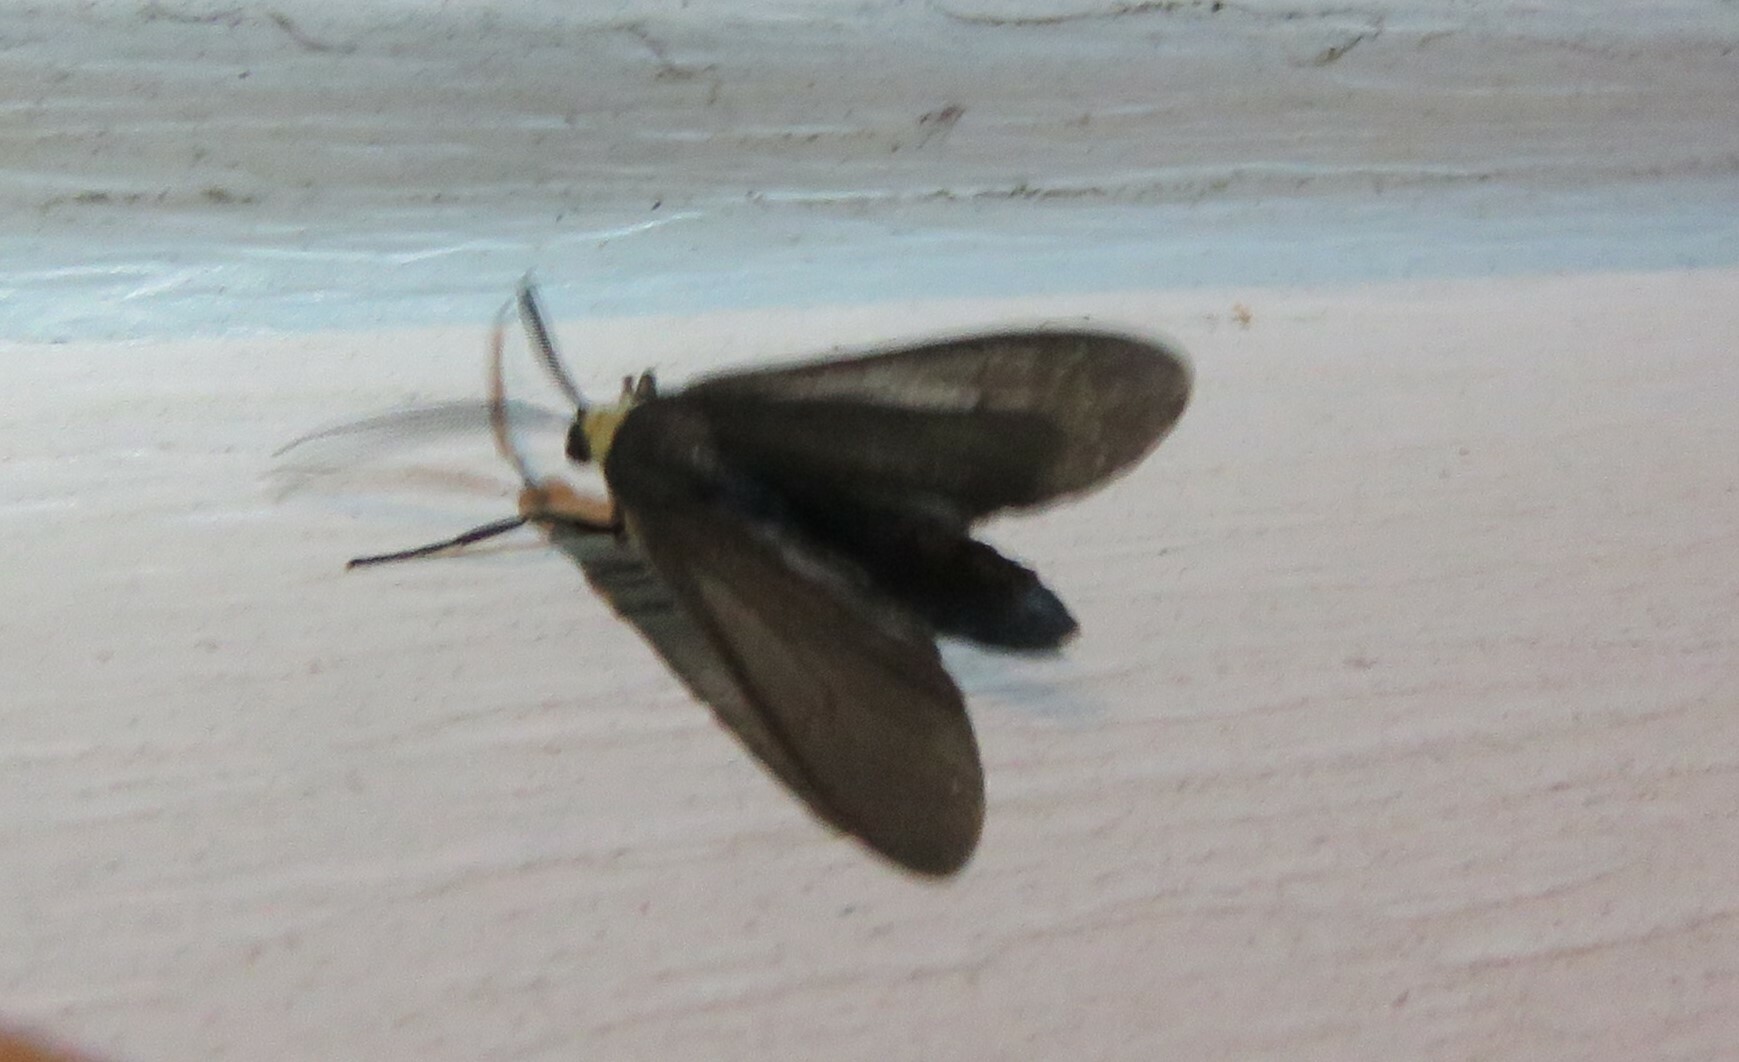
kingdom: Animalia
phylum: Arthropoda
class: Insecta
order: Lepidoptera
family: Erebidae
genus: Cisseps
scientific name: Cisseps fulvicollis
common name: Yellow-collared scape moth
